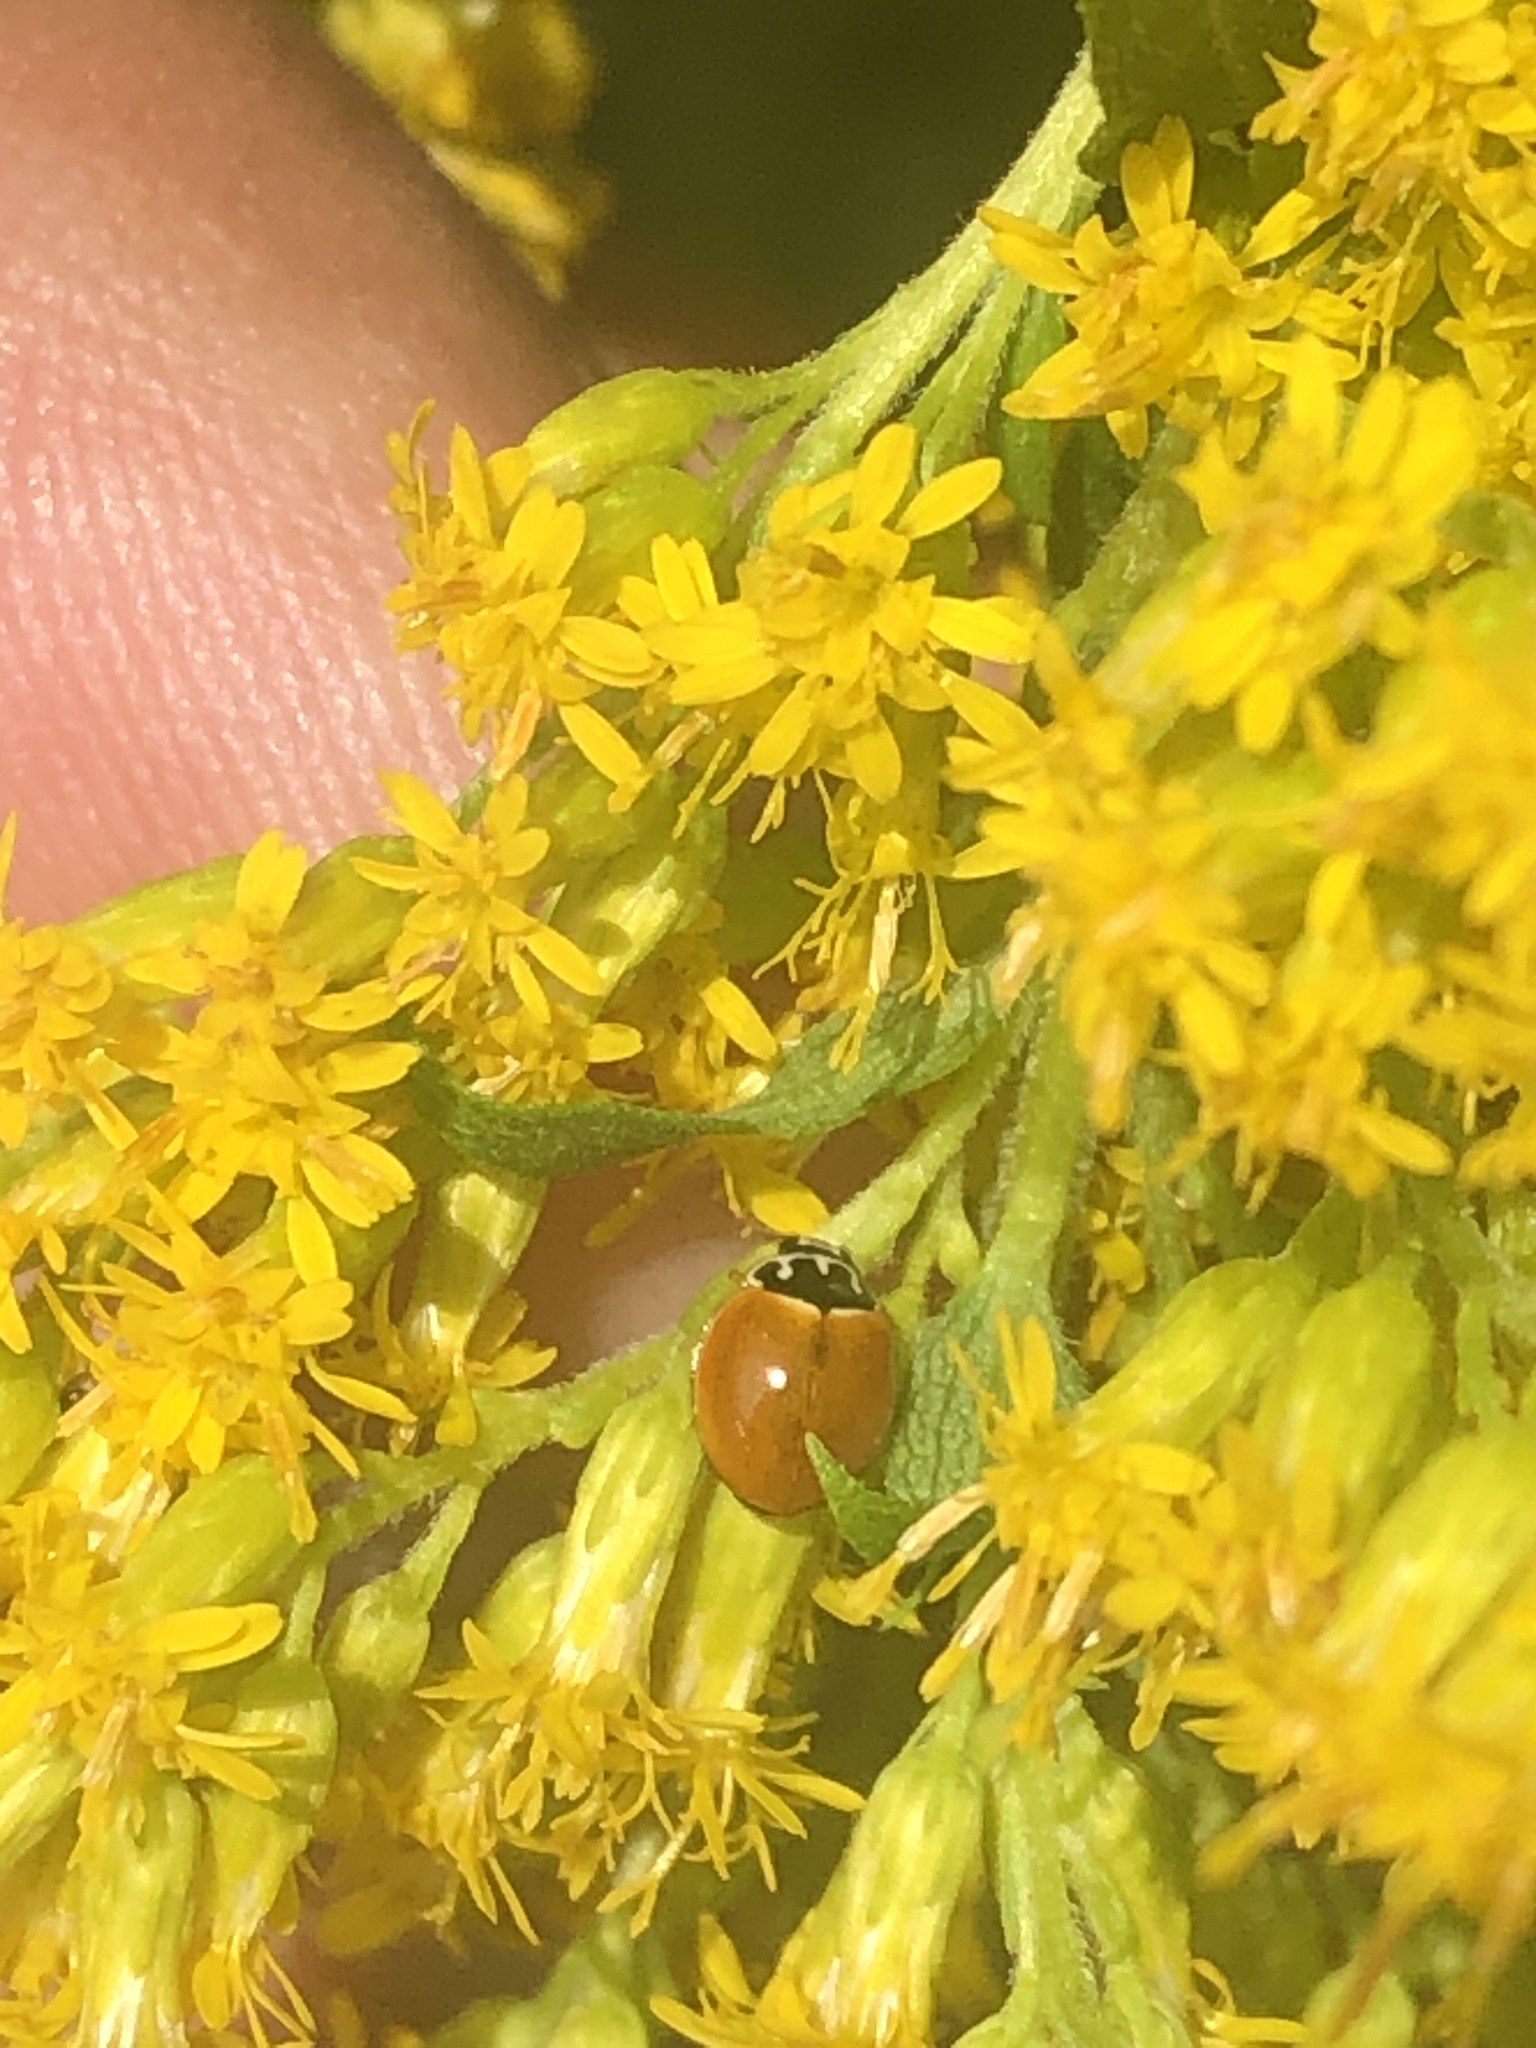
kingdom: Animalia
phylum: Arthropoda
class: Insecta
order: Coleoptera
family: Coccinellidae
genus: Cycloneda
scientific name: Cycloneda munda
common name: Polished lady beetle
